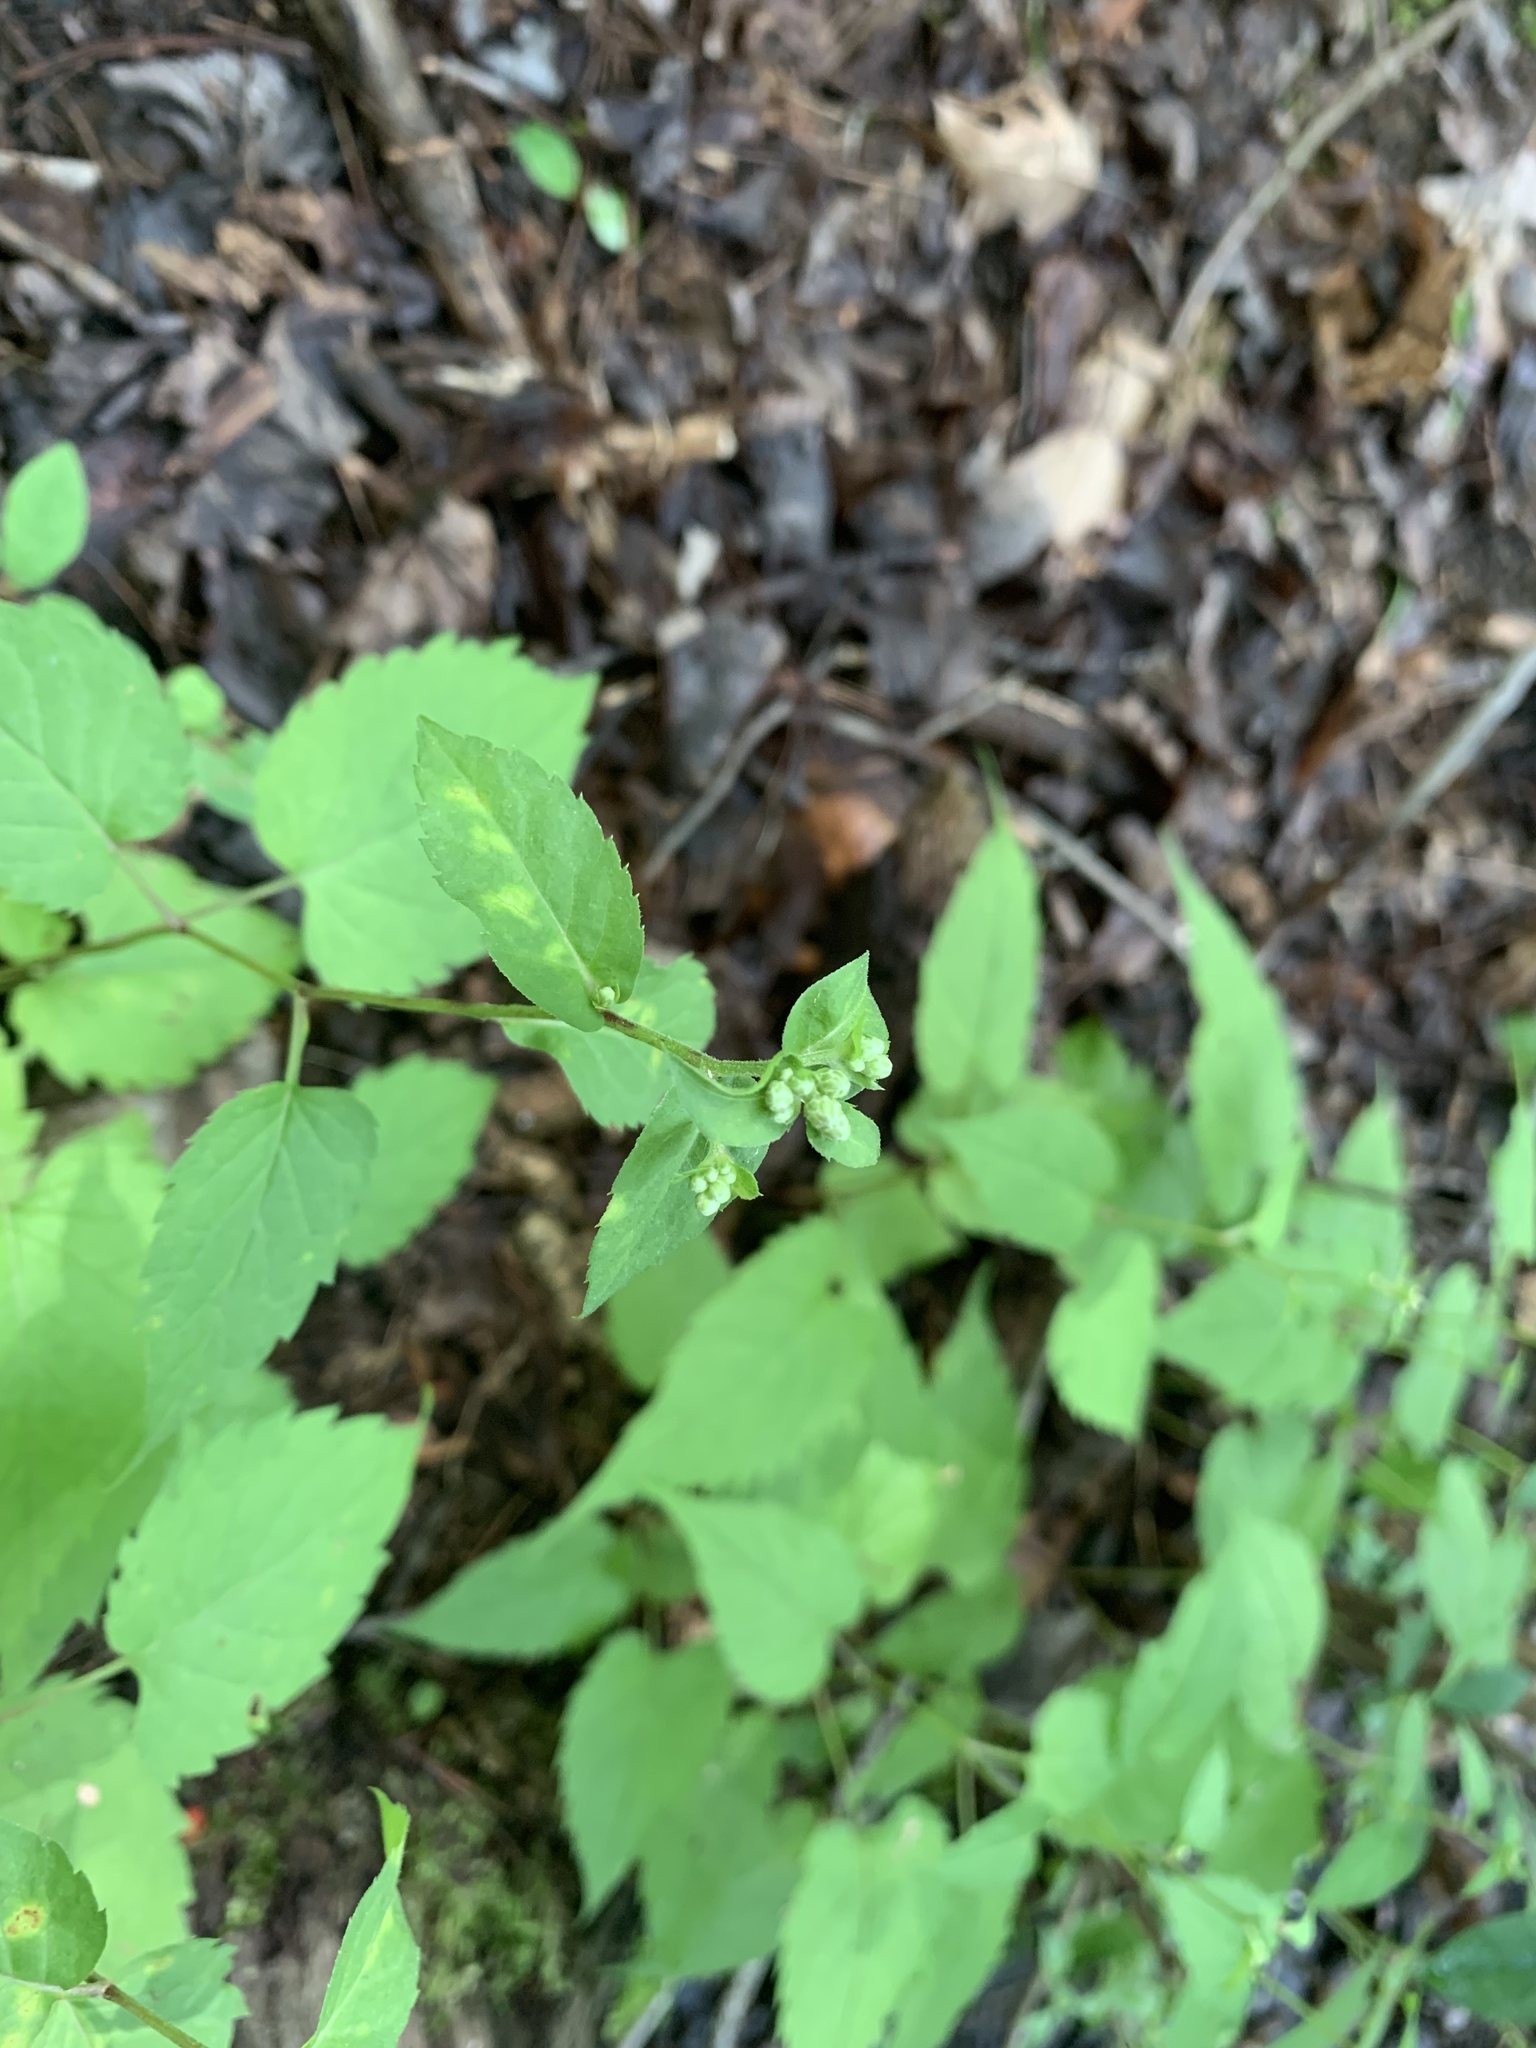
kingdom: Plantae
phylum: Tracheophyta
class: Magnoliopsida
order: Asterales
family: Asteraceae
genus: Eurybia
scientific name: Eurybia divaricata
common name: White wood aster
